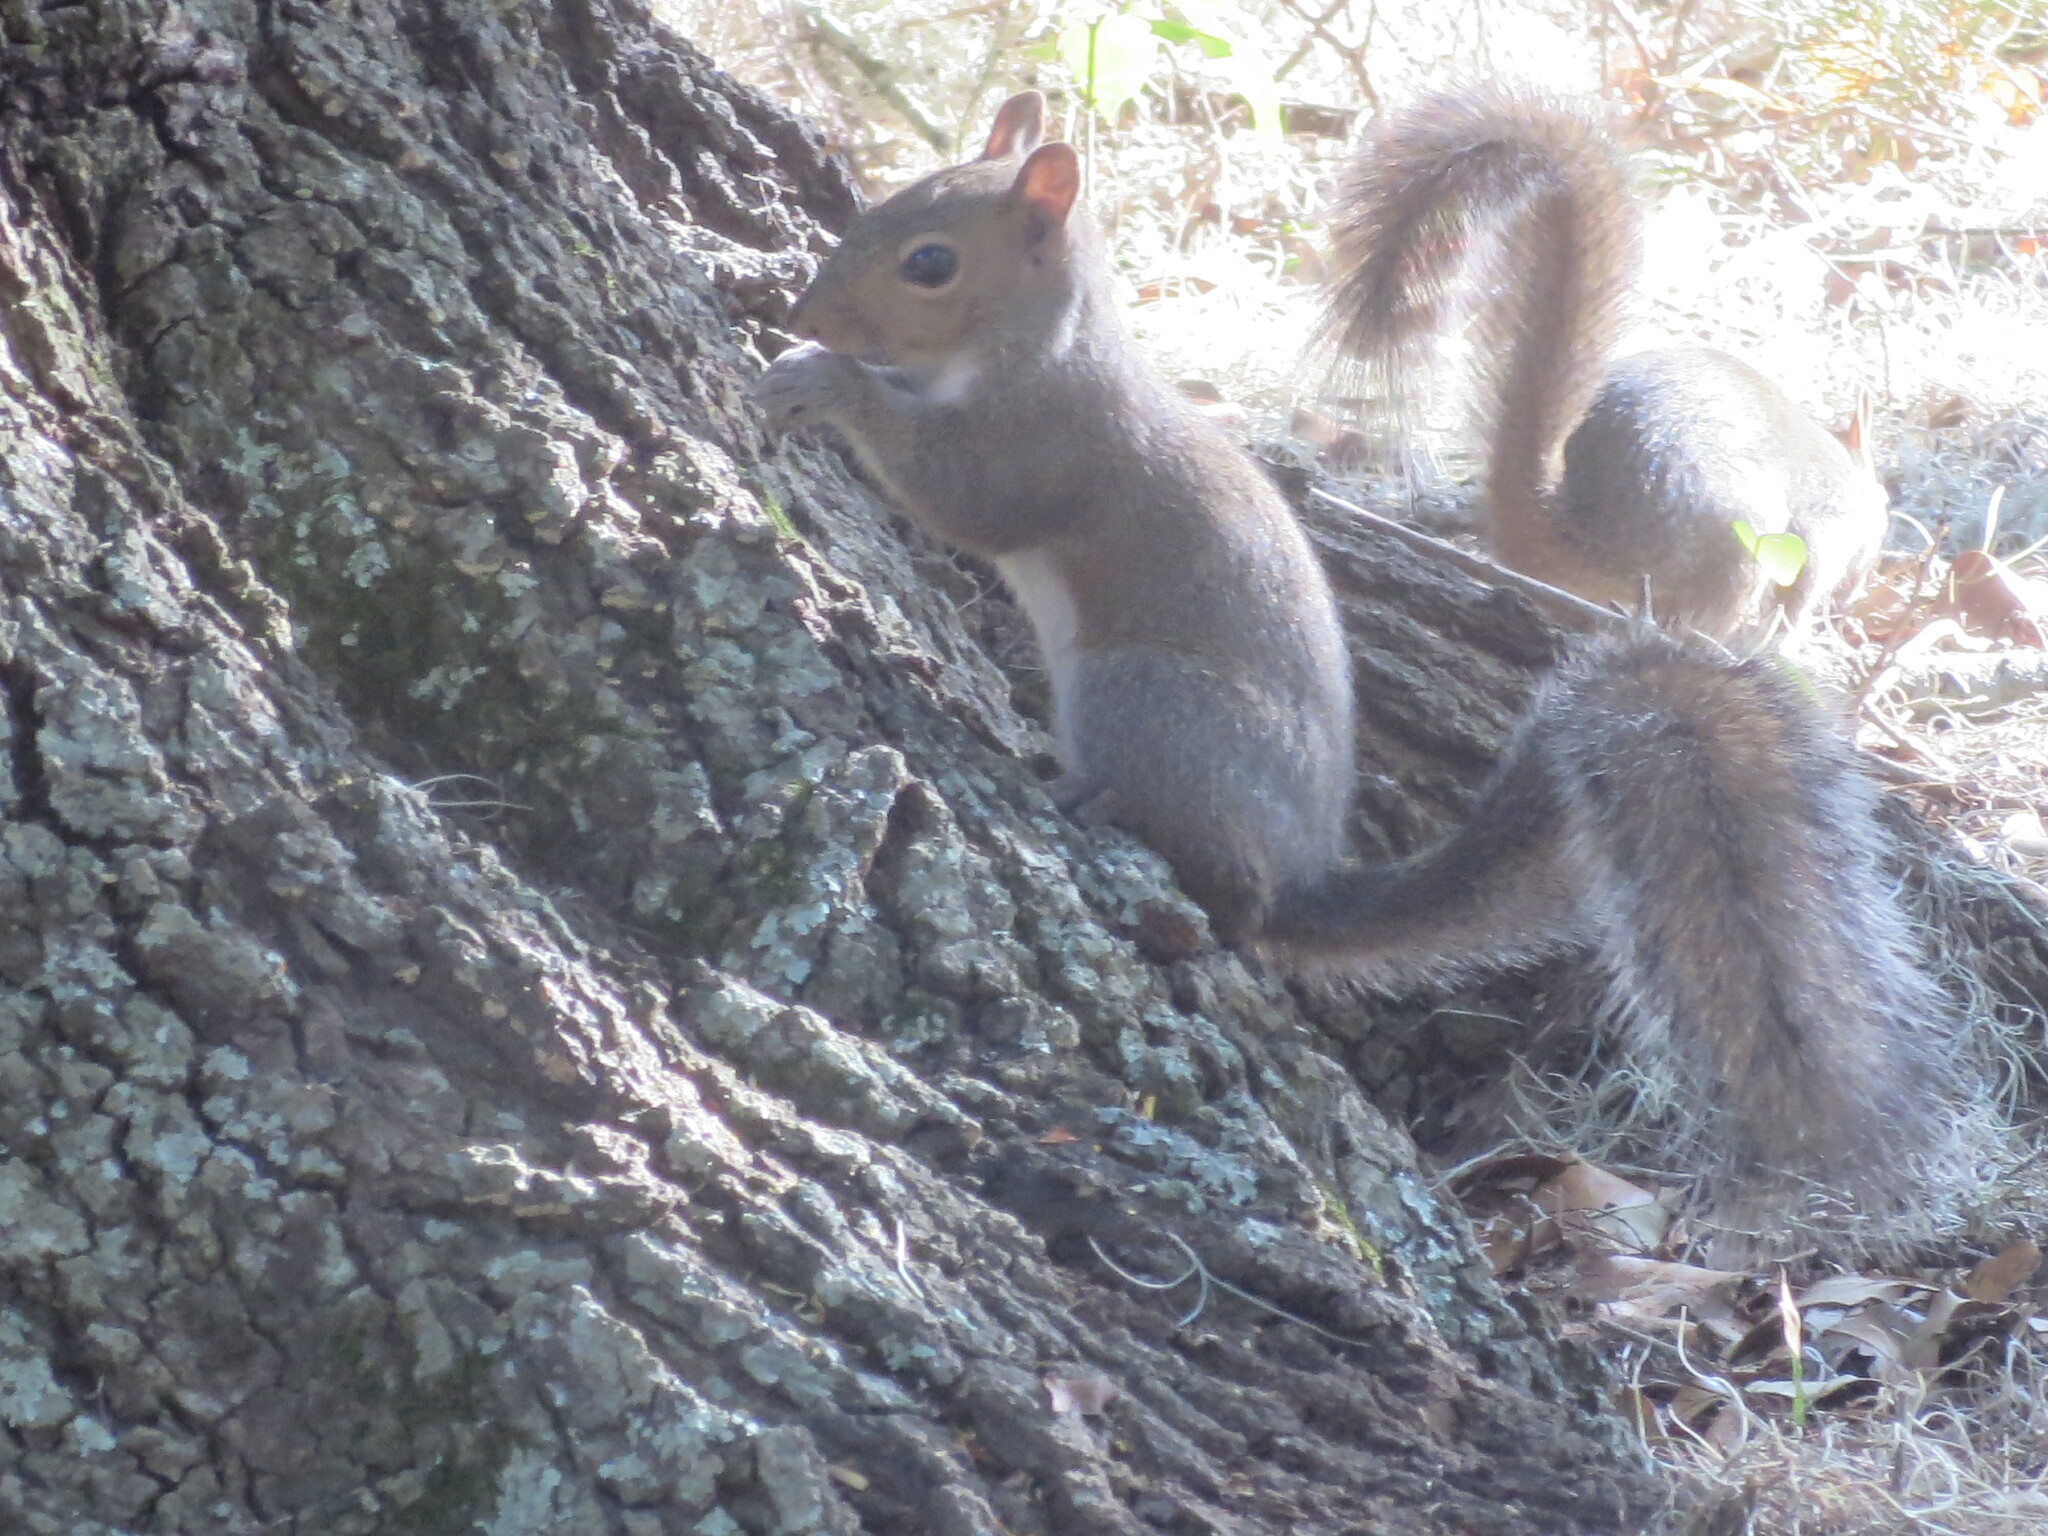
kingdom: Animalia
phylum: Chordata
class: Mammalia
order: Rodentia
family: Sciuridae
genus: Sciurus
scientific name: Sciurus carolinensis
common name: Eastern gray squirrel
